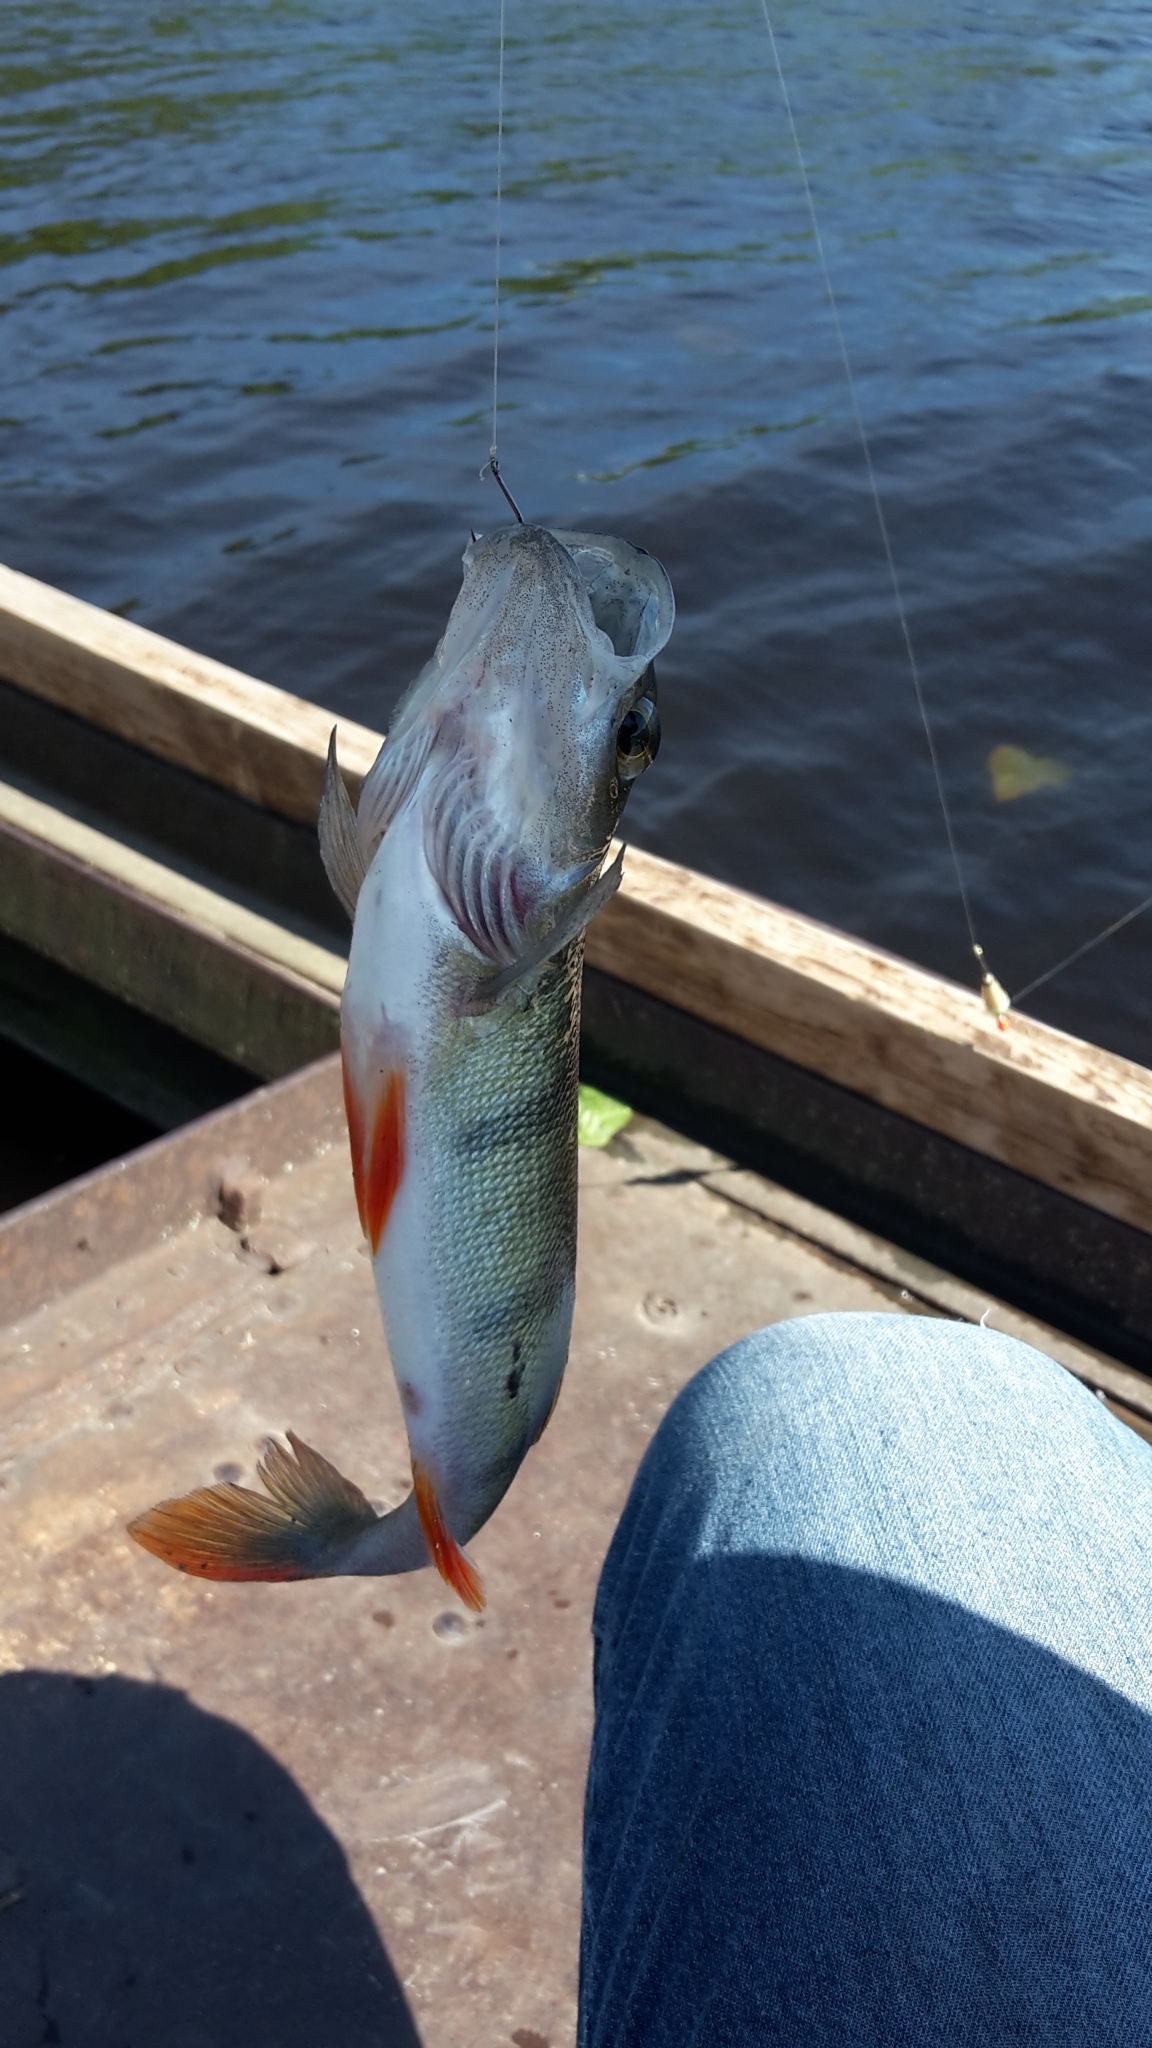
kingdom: Animalia
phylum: Chordata
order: Perciformes
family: Percidae
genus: Perca
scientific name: Perca fluviatilis
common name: Perch
